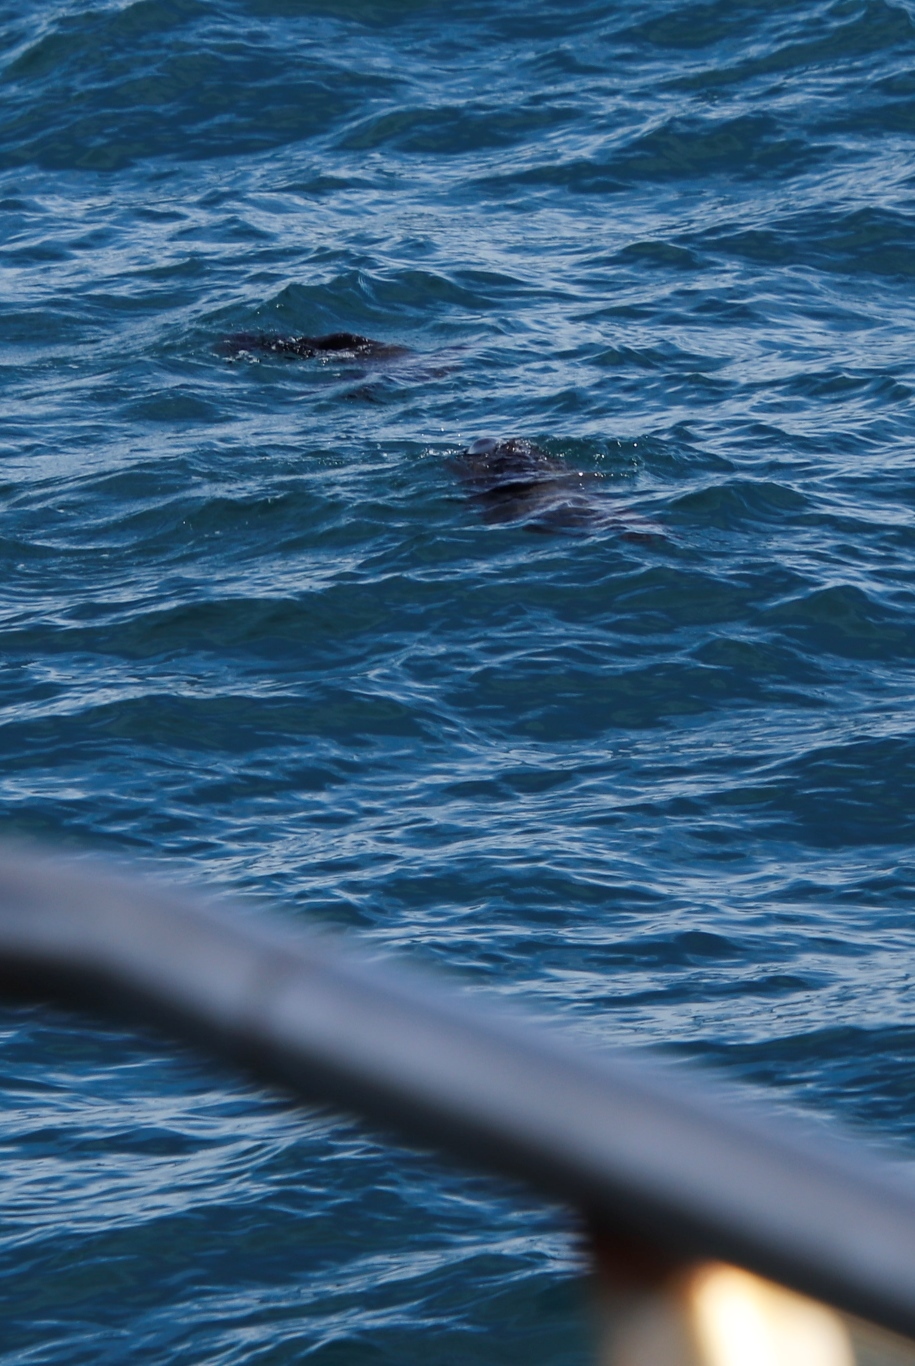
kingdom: Animalia
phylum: Chordata
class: Mammalia
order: Carnivora
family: Otariidae
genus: Arctocephalus
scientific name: Arctocephalus pusillus
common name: Brown fur seal
